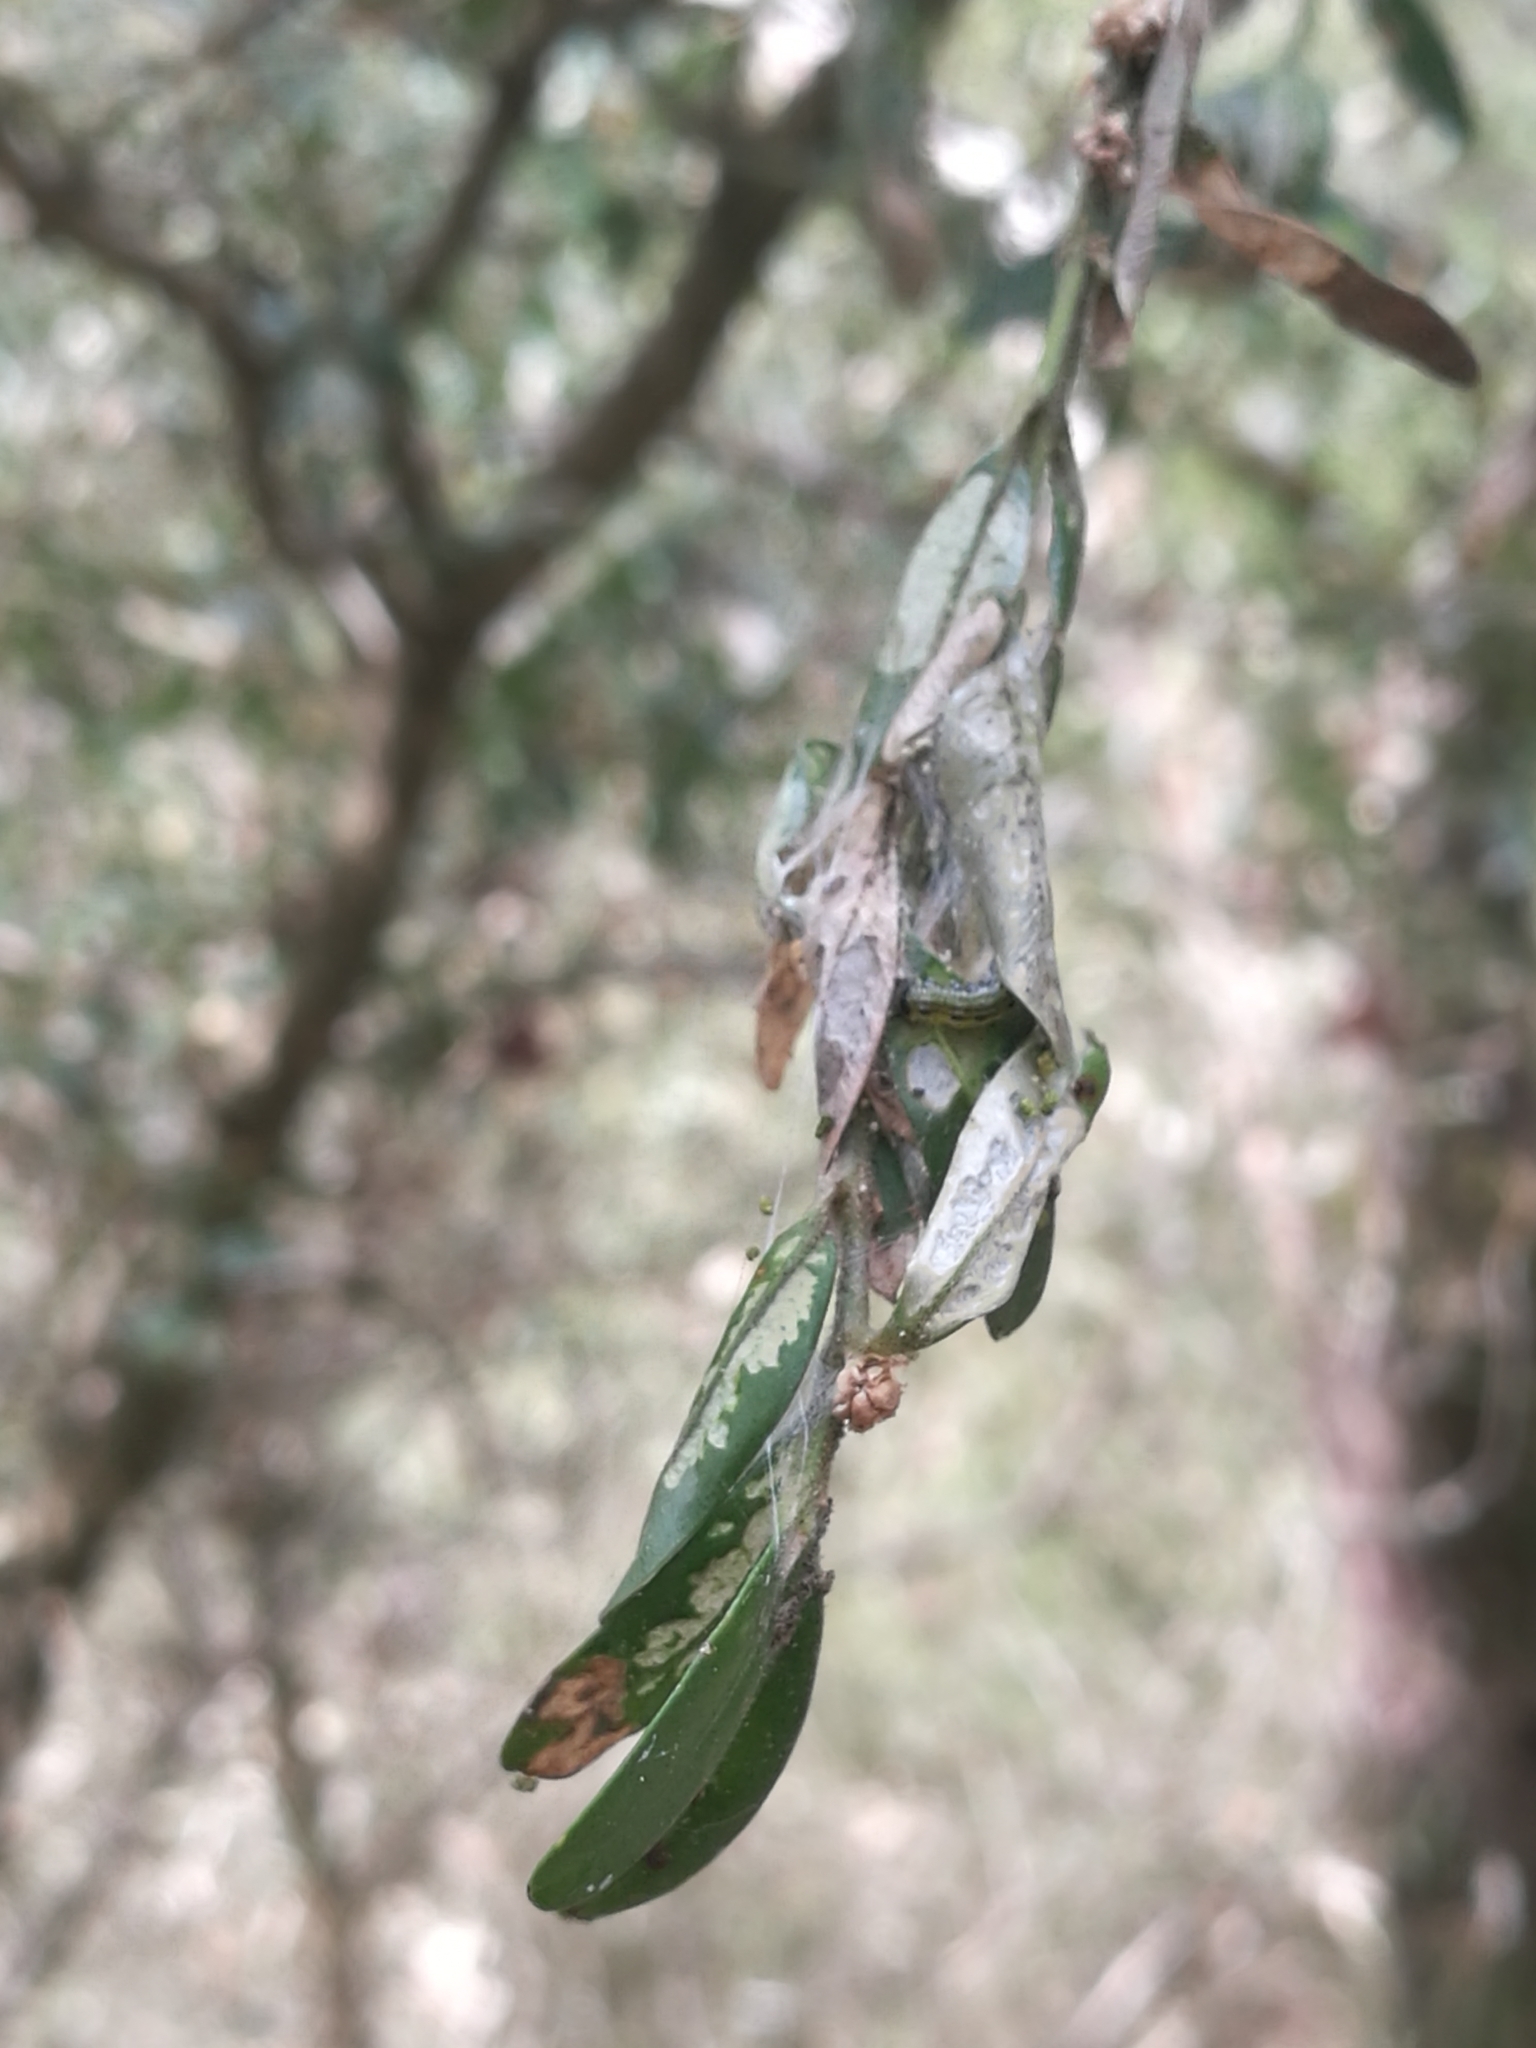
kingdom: Animalia
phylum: Arthropoda
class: Insecta
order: Lepidoptera
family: Crambidae
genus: Cydalima
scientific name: Cydalima perspectalis
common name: Box tree moth
